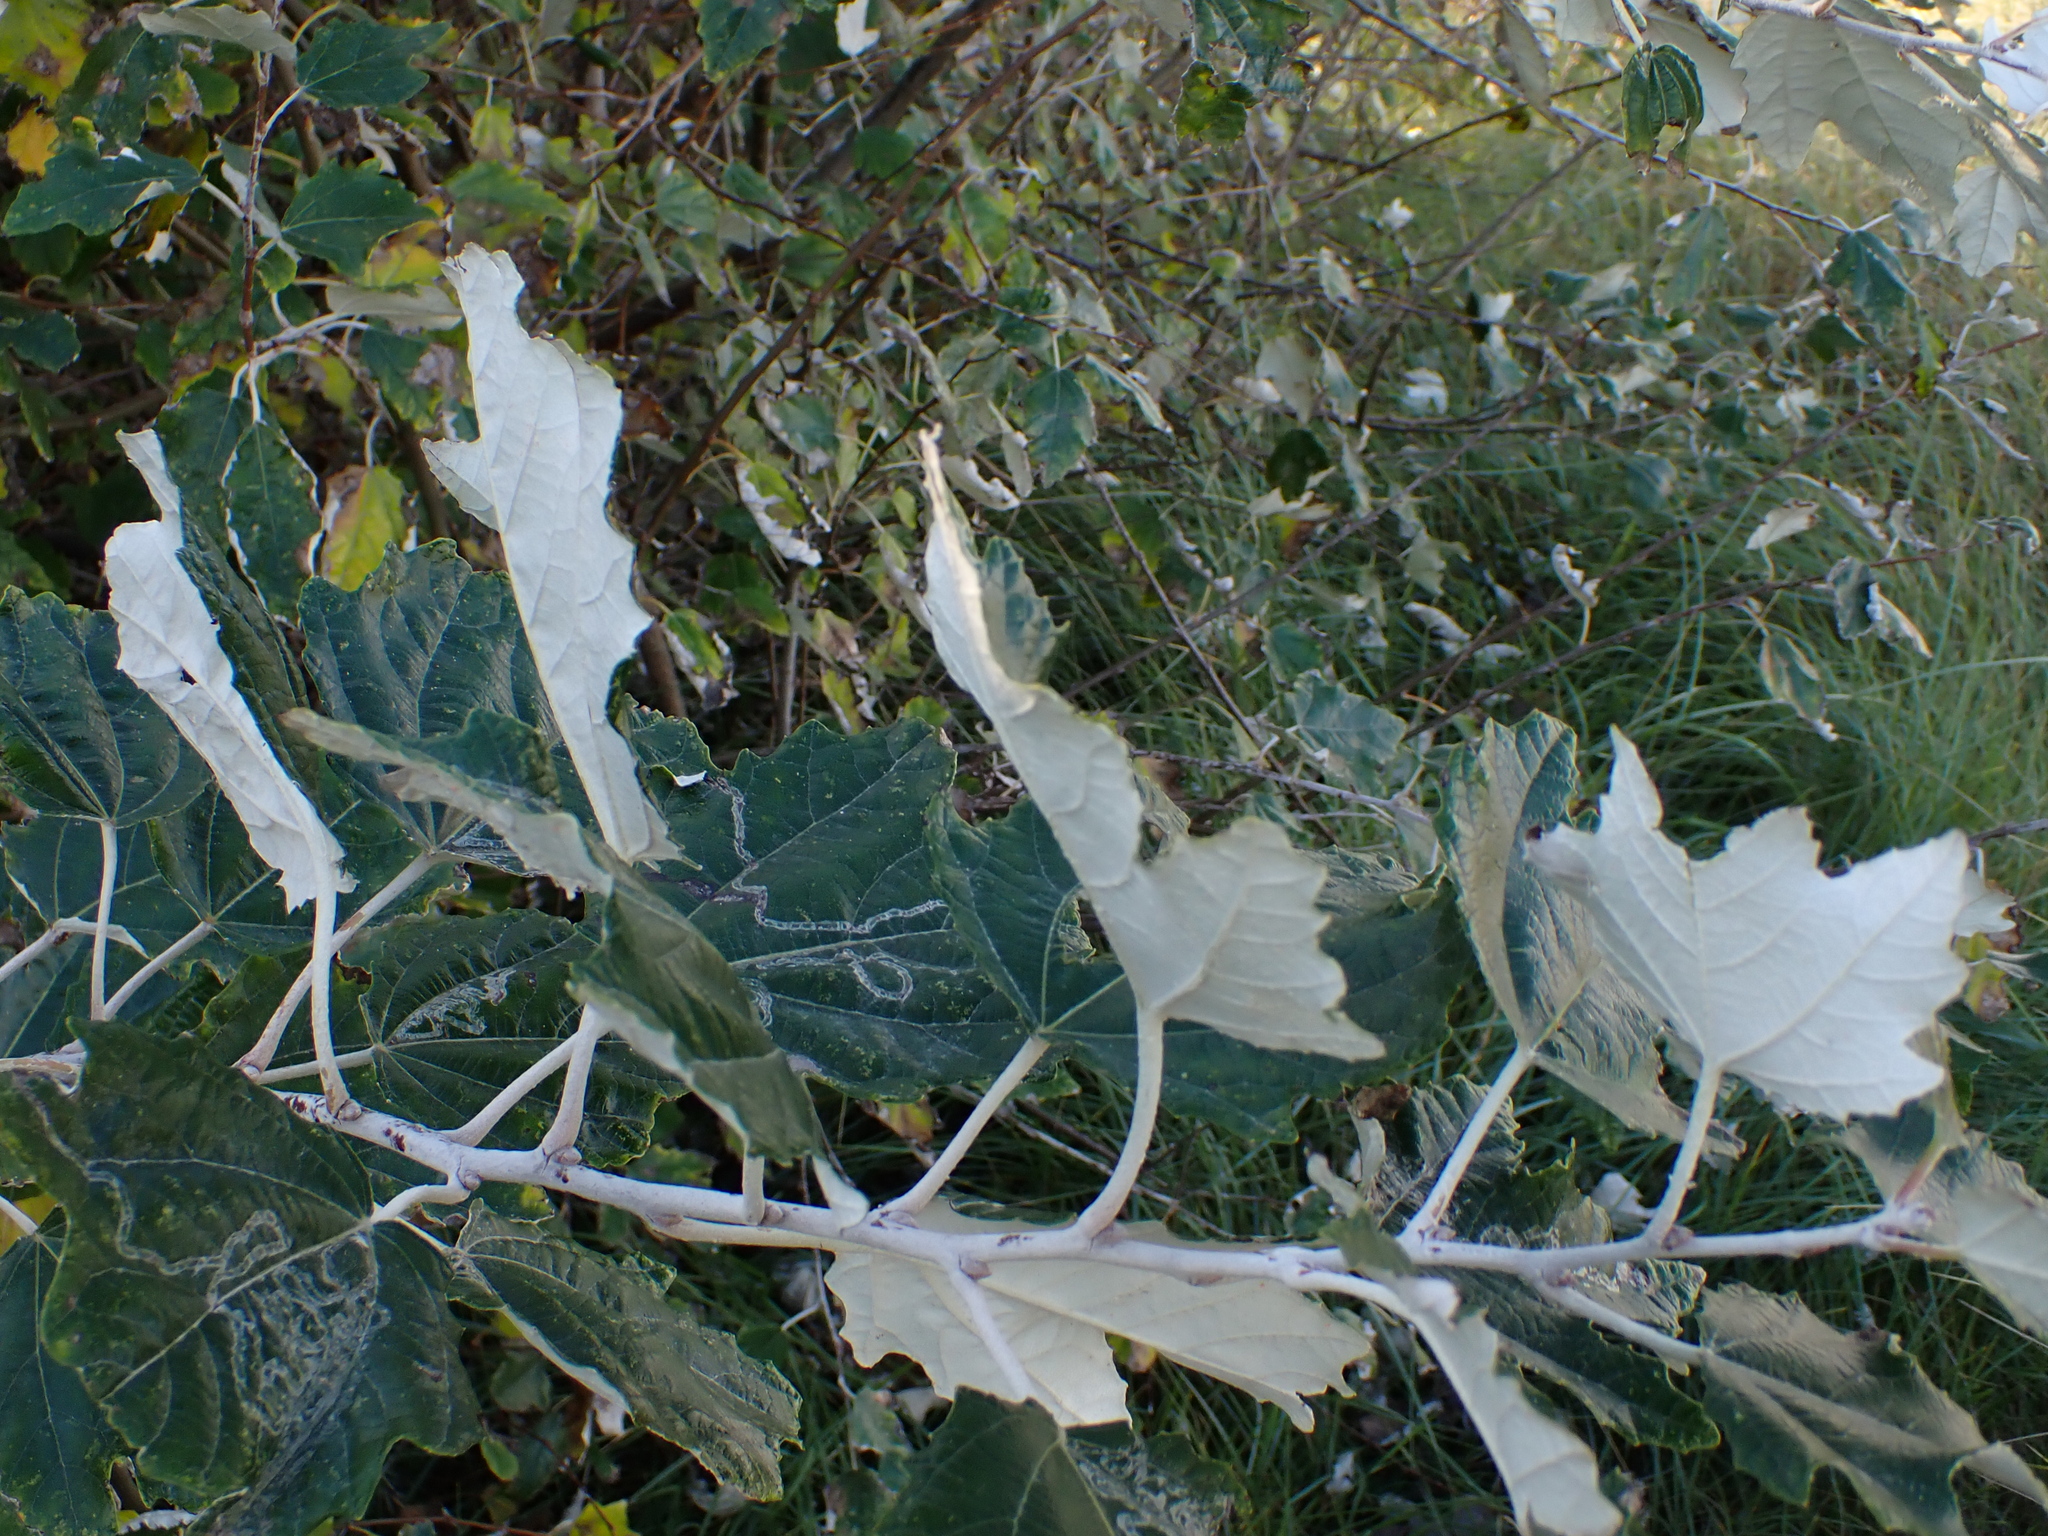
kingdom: Plantae
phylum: Tracheophyta
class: Magnoliopsida
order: Malpighiales
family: Salicaceae
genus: Populus
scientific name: Populus alba
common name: White poplar
